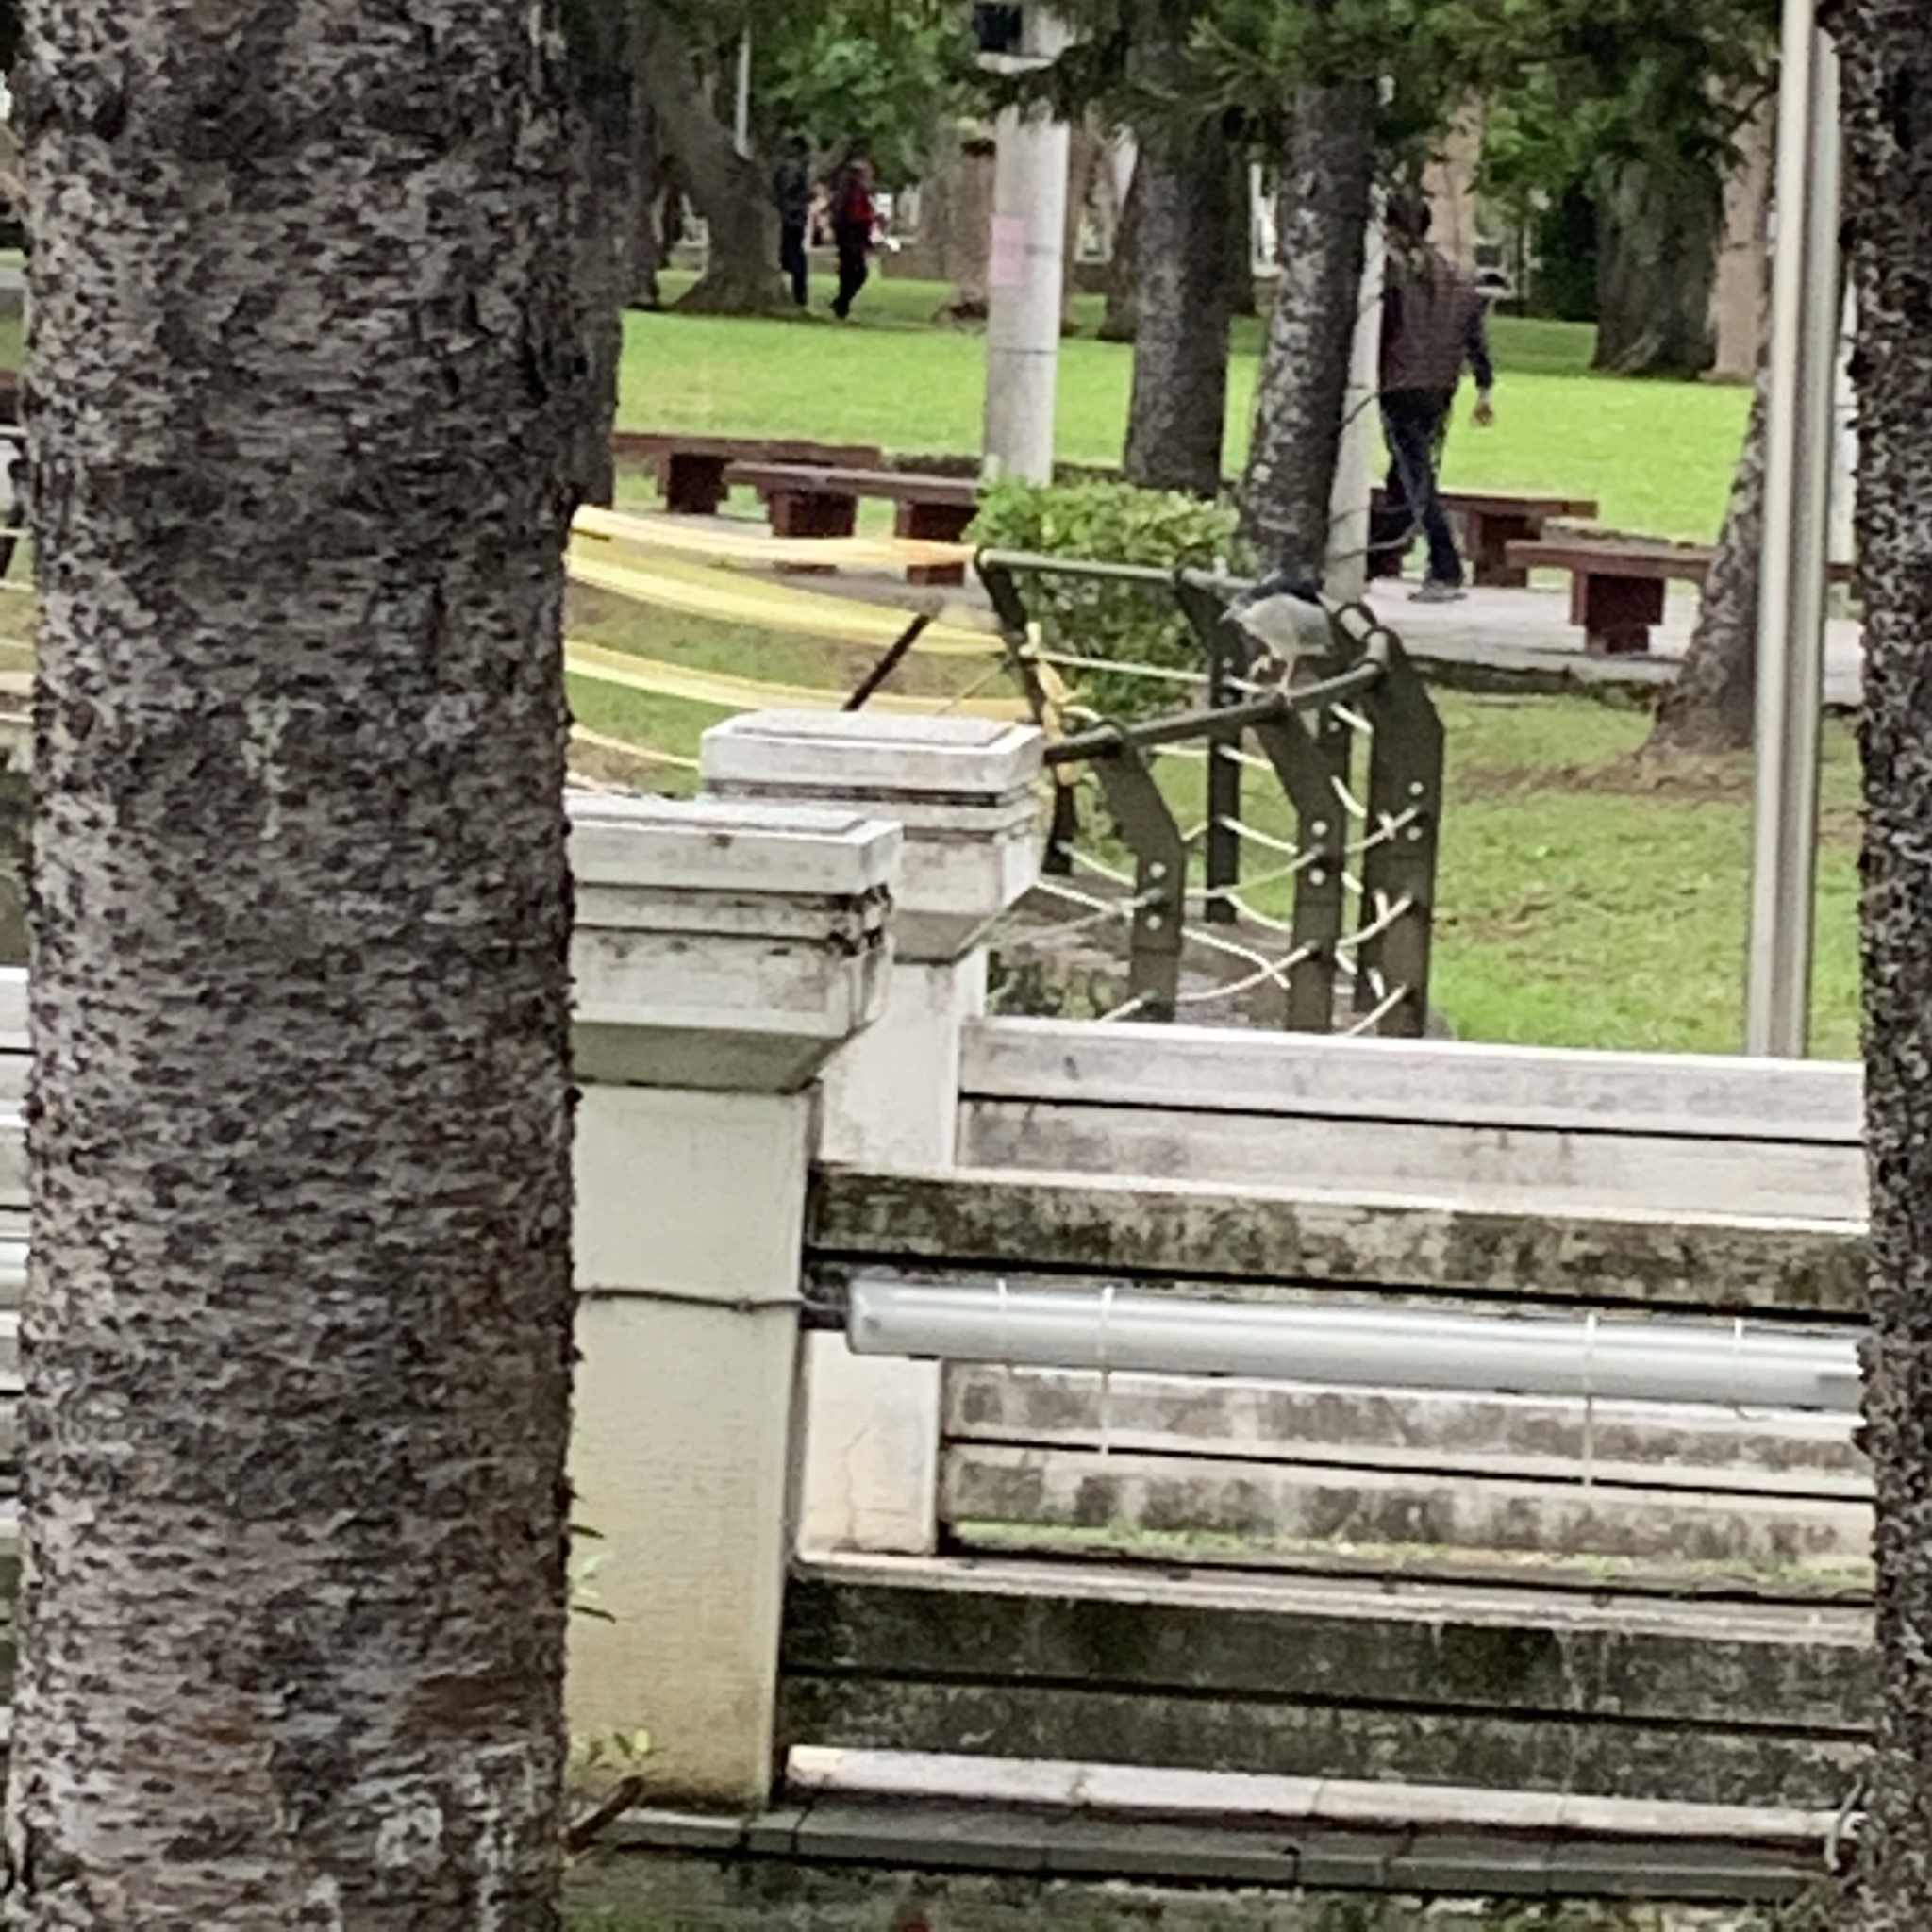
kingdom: Animalia
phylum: Chordata
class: Aves
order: Pelecaniformes
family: Ardeidae
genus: Nycticorax
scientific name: Nycticorax nycticorax
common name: Black-crowned night heron
